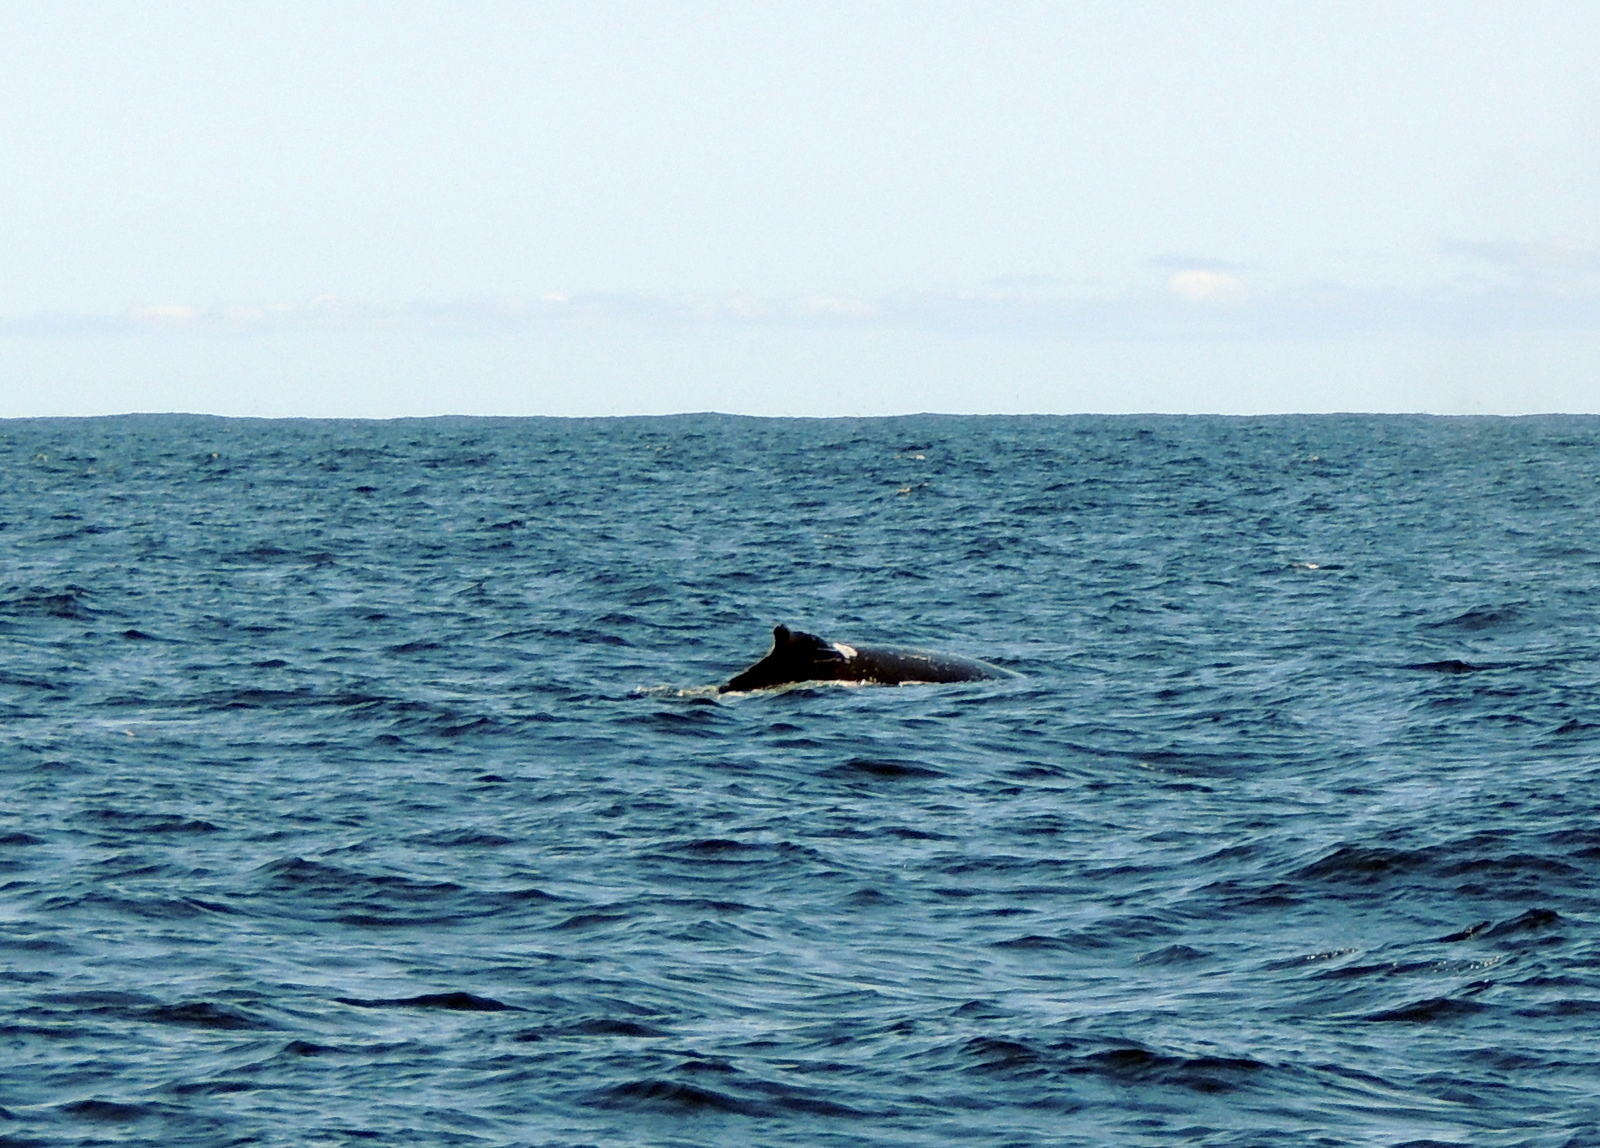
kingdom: Animalia
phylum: Chordata
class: Mammalia
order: Cetacea
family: Balaenopteridae
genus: Megaptera
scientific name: Megaptera novaeangliae
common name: Humpback whale
